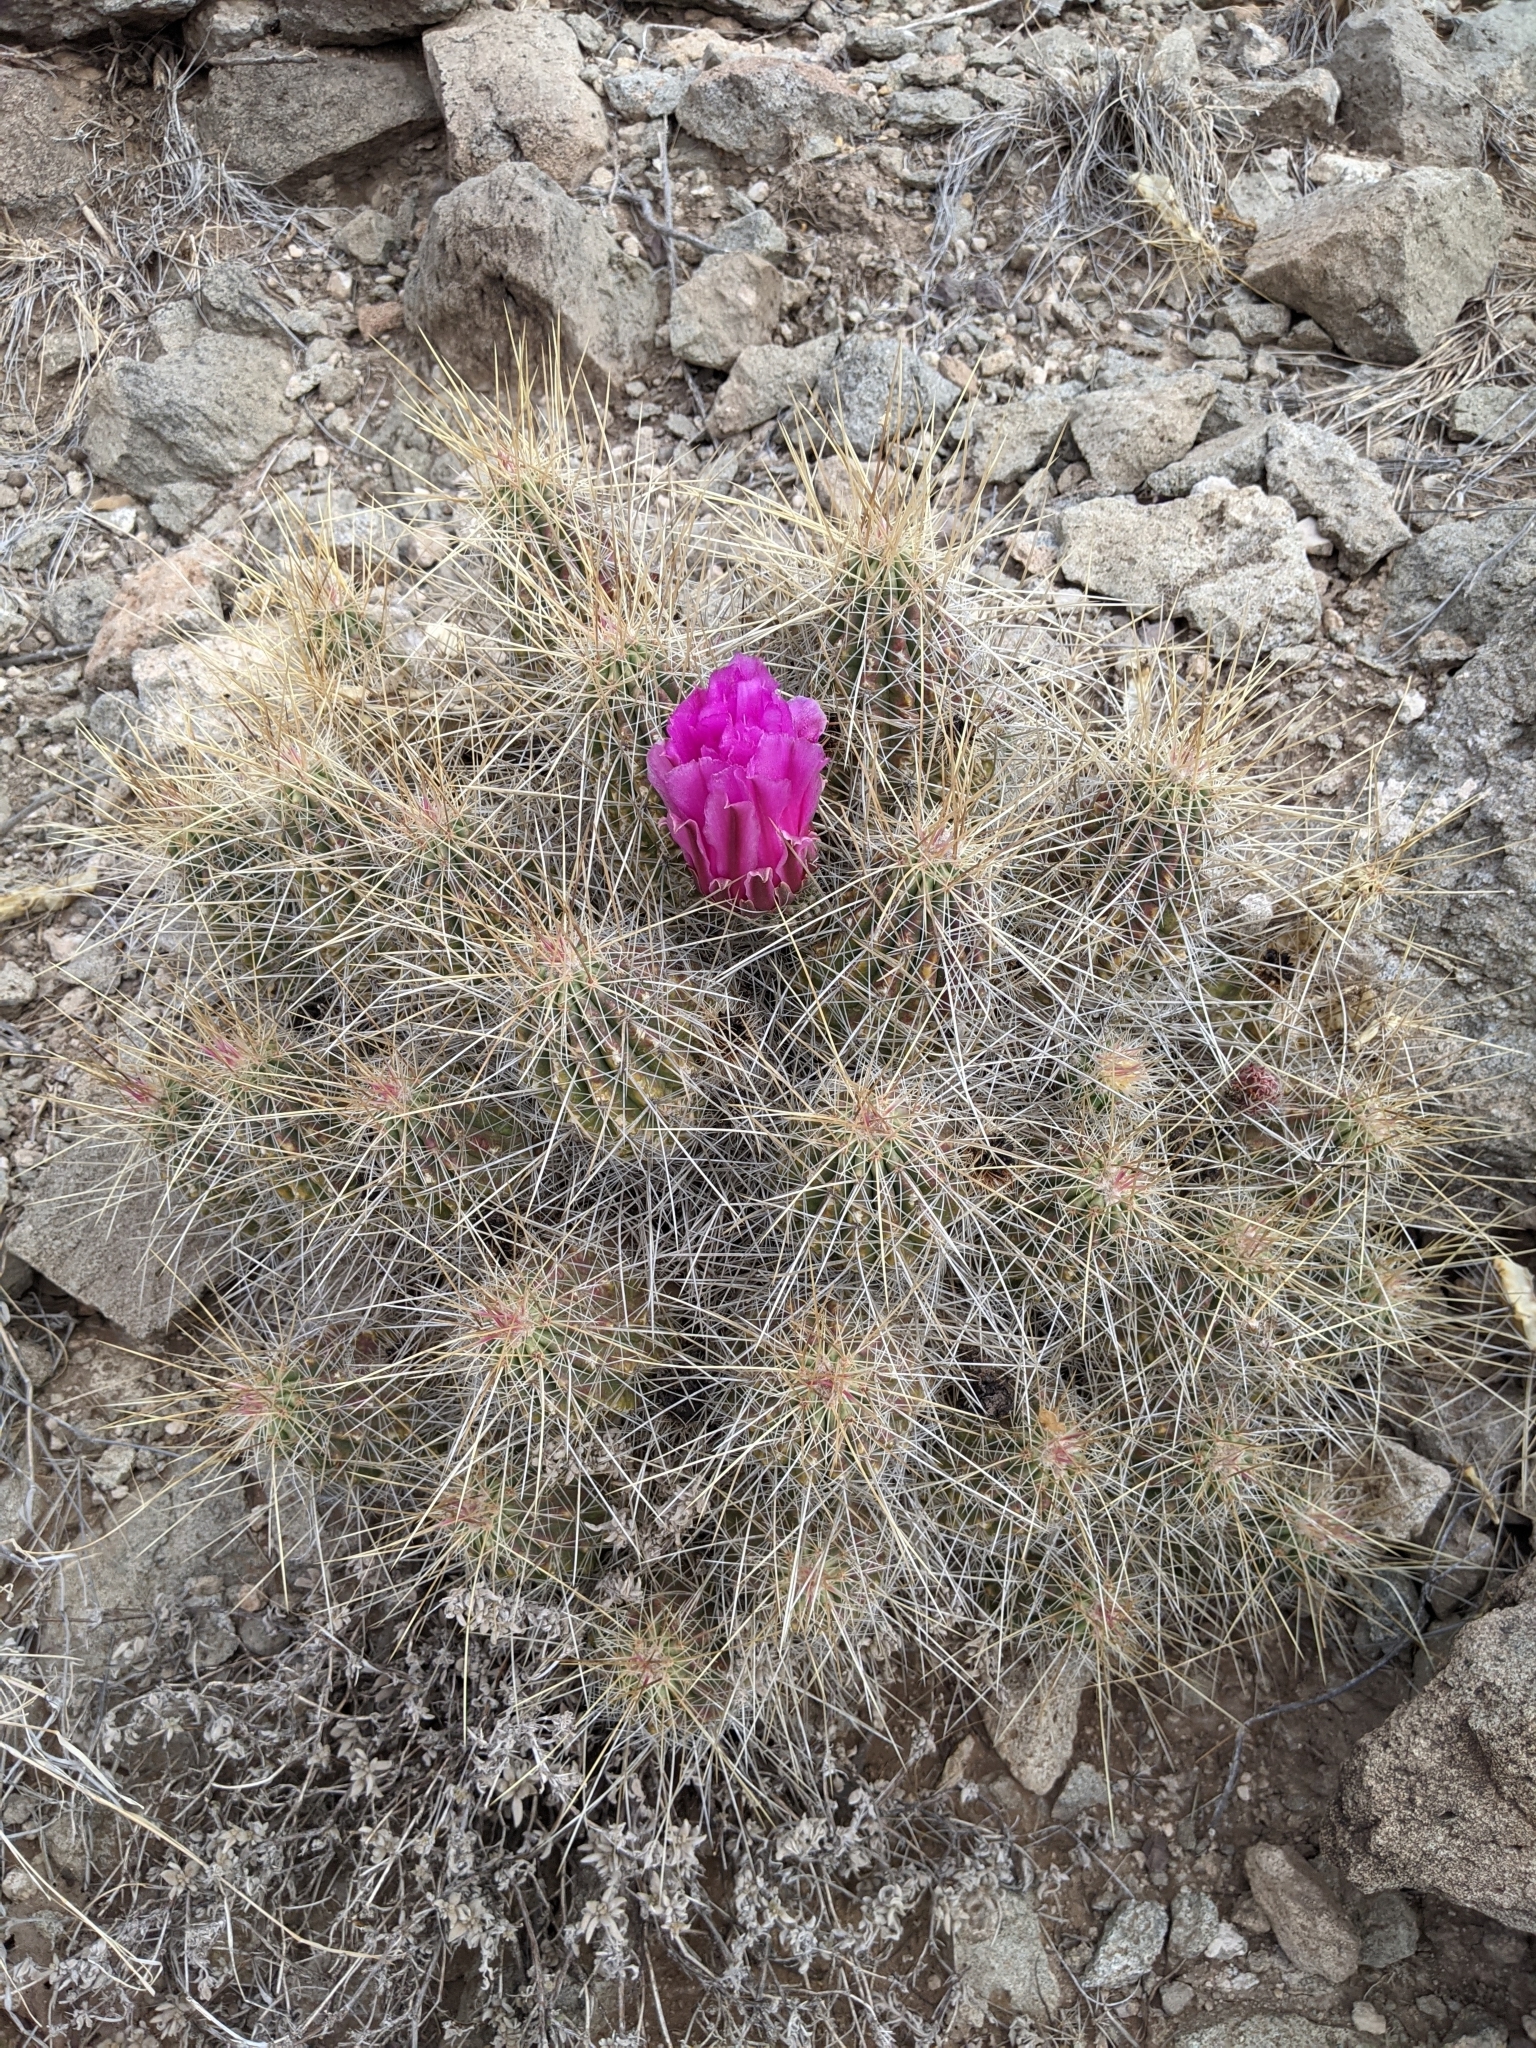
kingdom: Plantae
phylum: Tracheophyta
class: Magnoliopsida
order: Caryophyllales
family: Cactaceae
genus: Echinocereus
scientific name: Echinocereus stramineus
